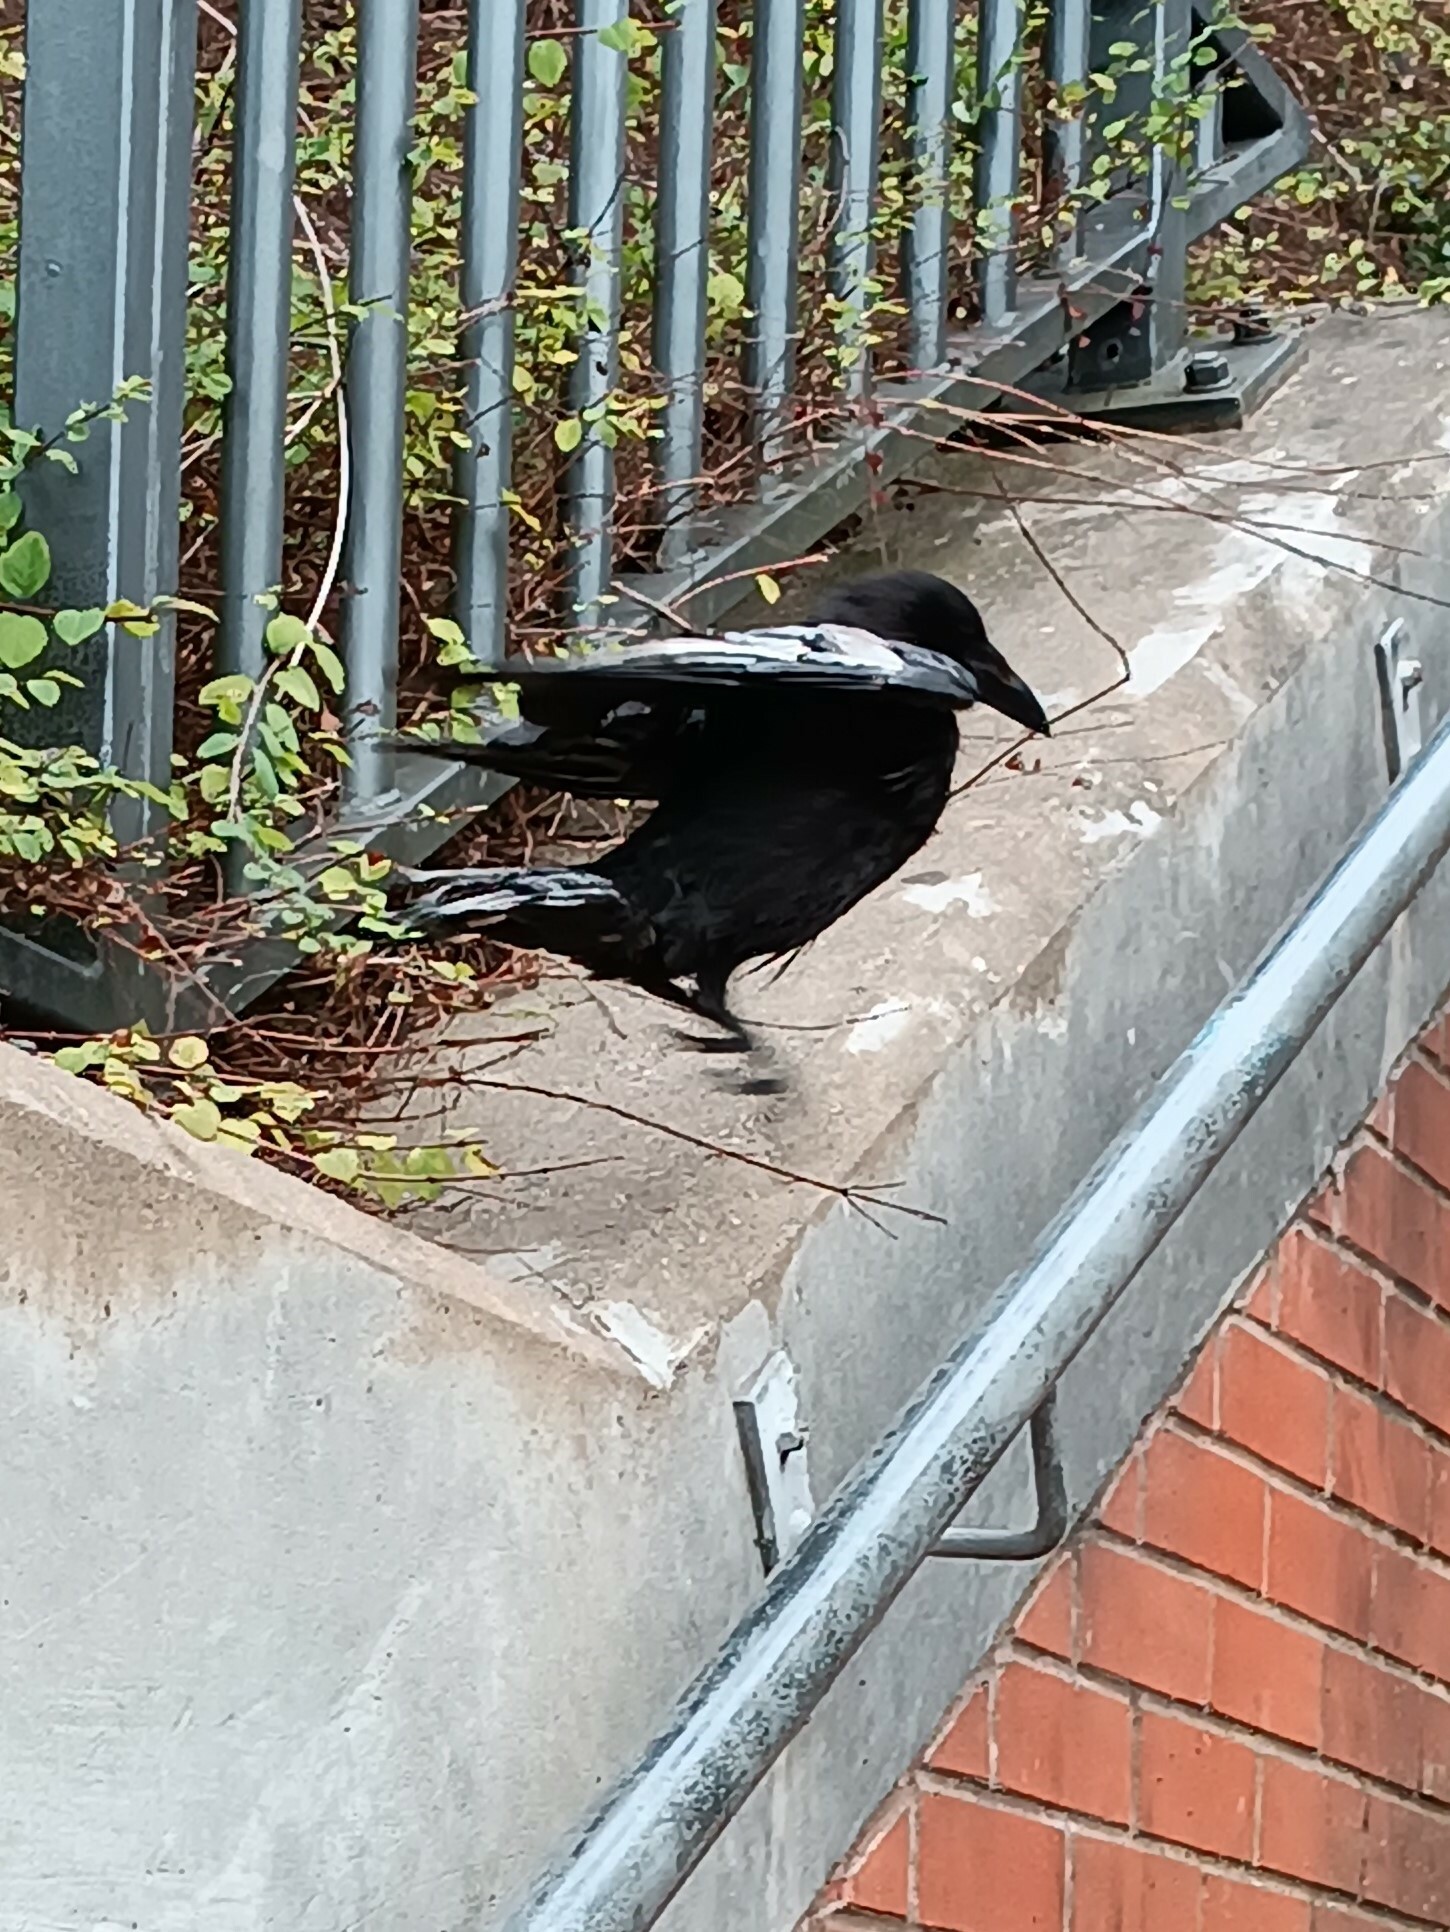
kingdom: Animalia
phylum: Chordata
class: Aves
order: Passeriformes
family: Corvidae
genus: Corvus
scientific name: Corvus corone
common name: Carrion crow
